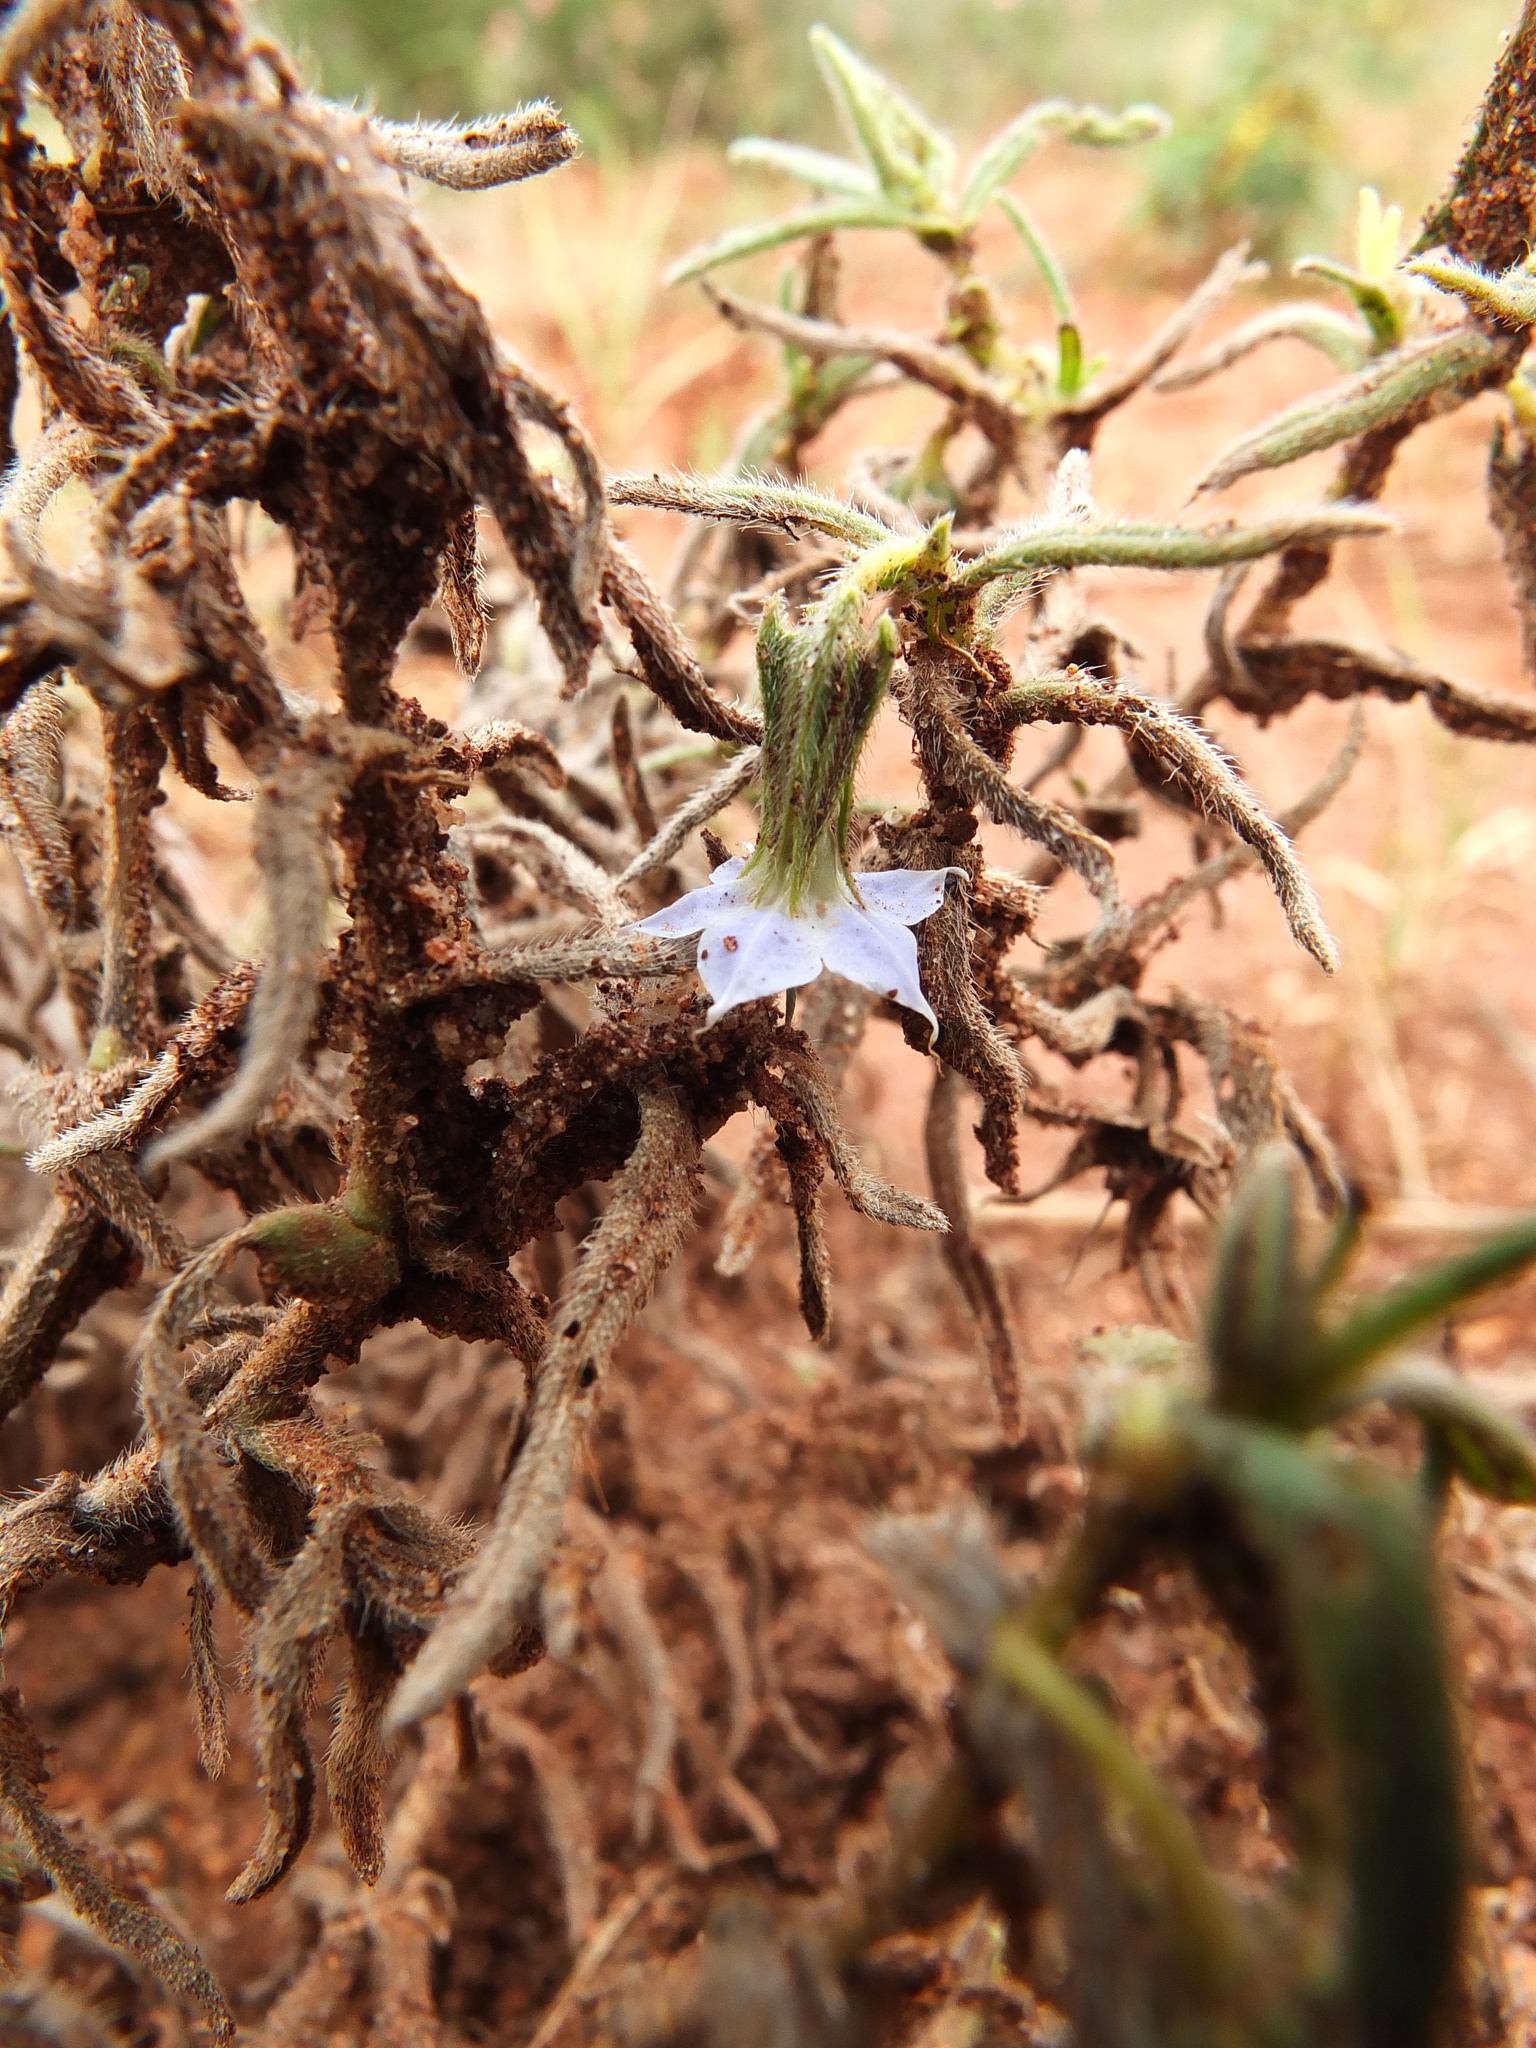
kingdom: Plantae
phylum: Tracheophyta
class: Magnoliopsida
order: Boraginales
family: Boraginaceae
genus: Trichodesma
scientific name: Trichodesma indicum
